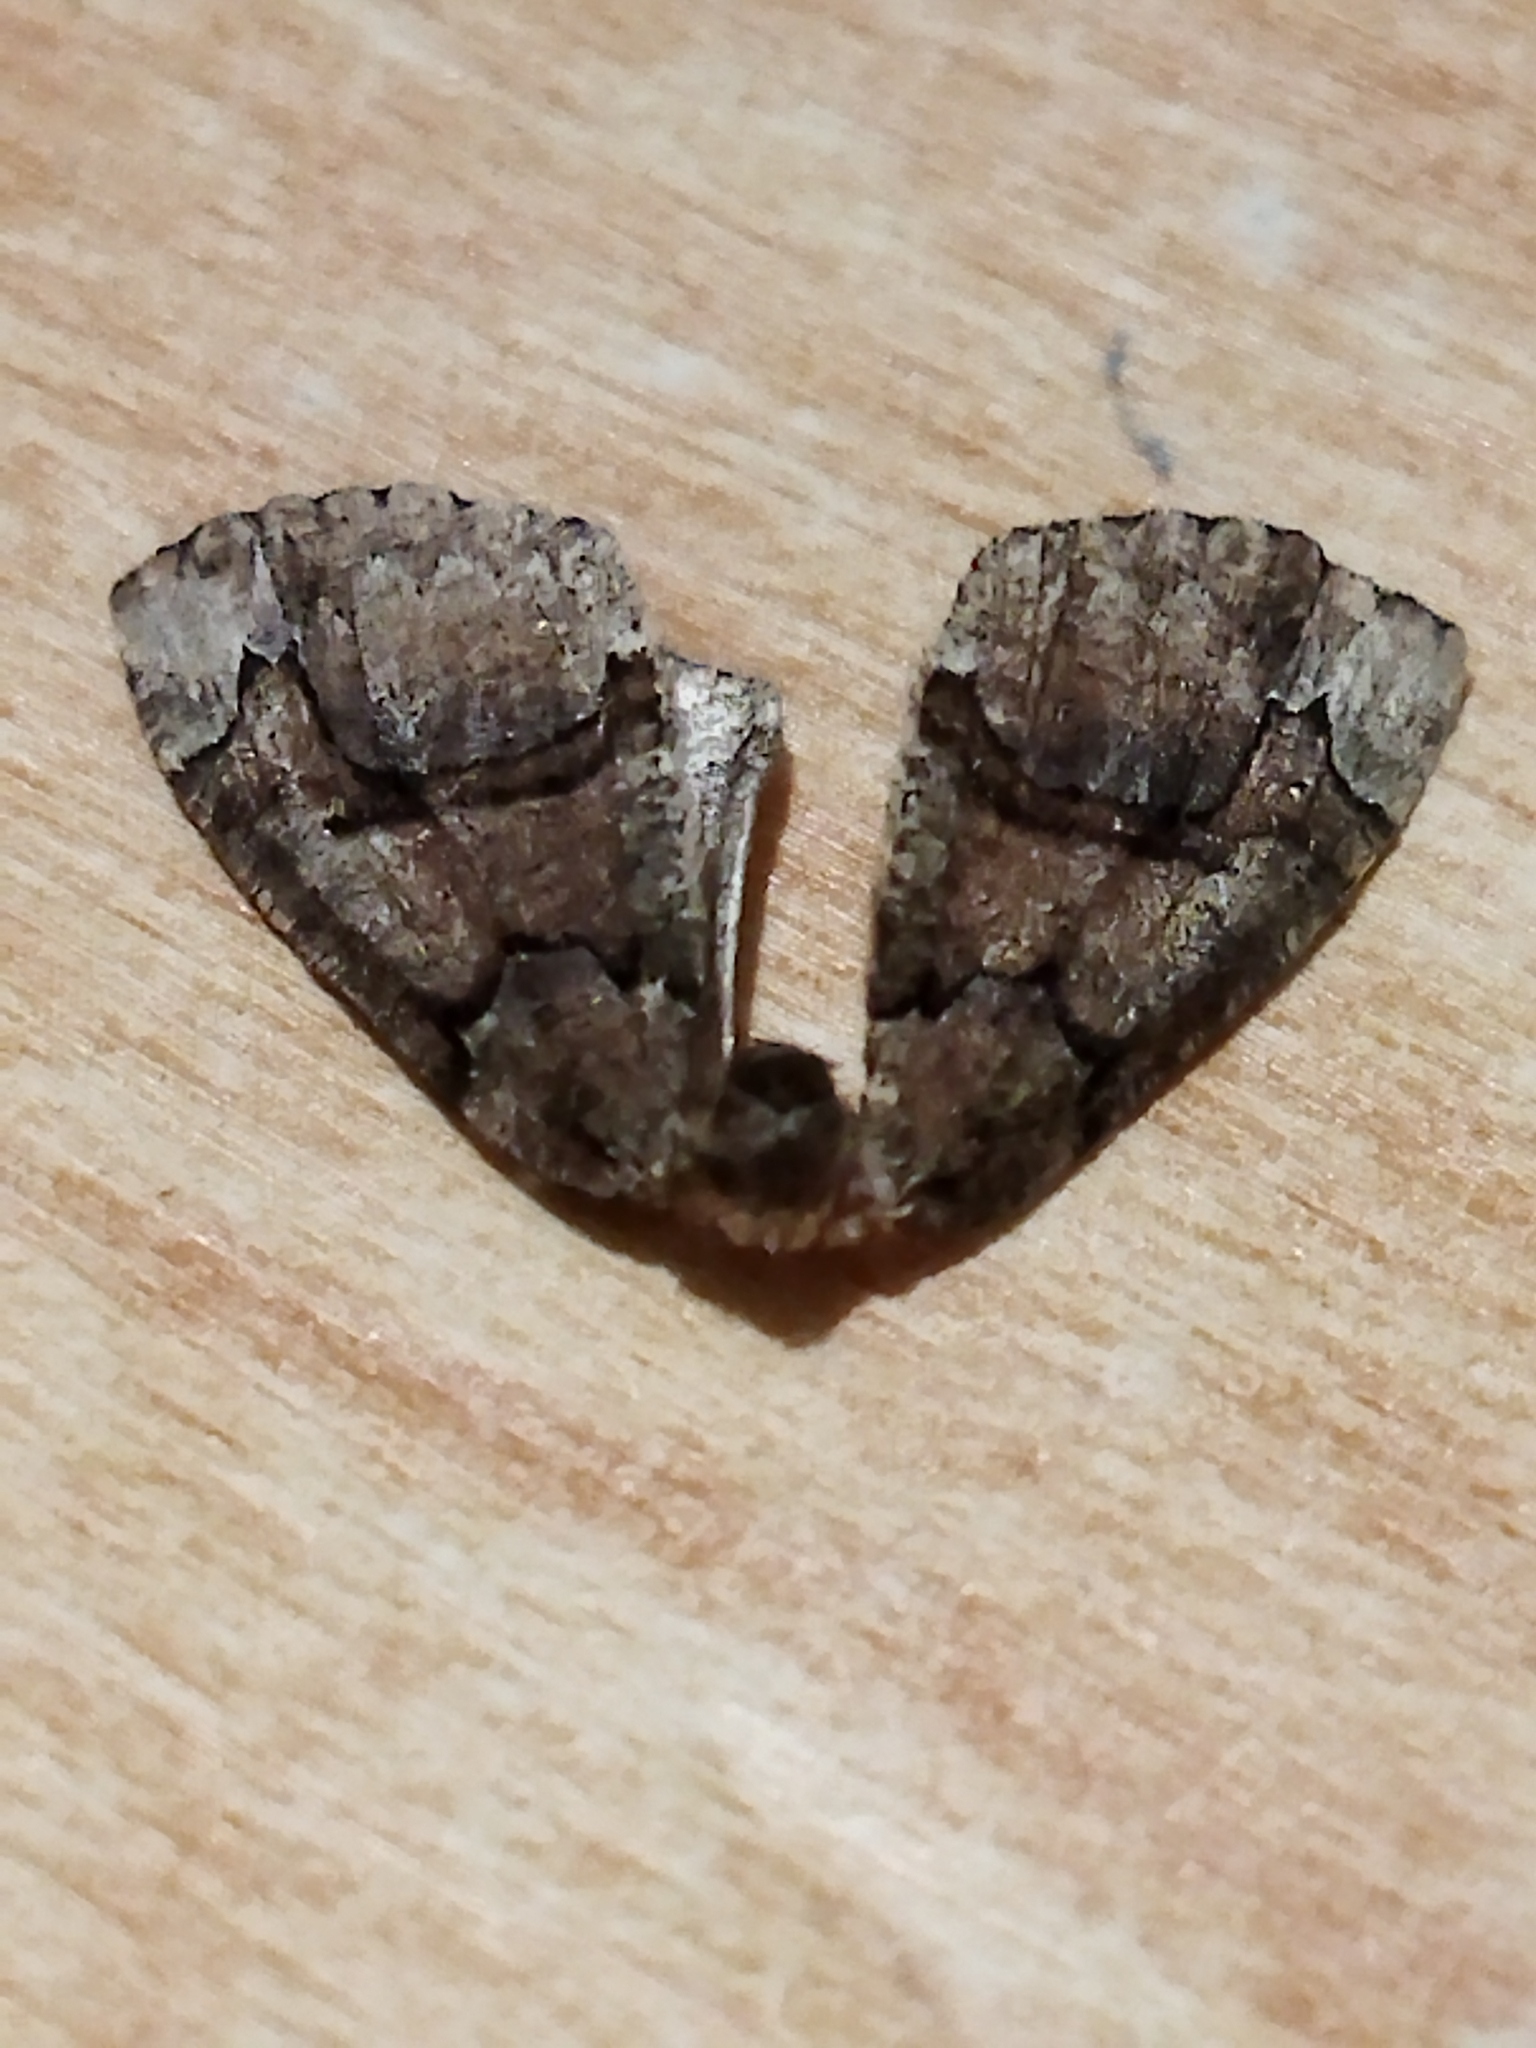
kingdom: Animalia
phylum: Arthropoda
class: Insecta
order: Lepidoptera
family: Geometridae
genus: Asovia
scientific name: Asovia maeoticaria
